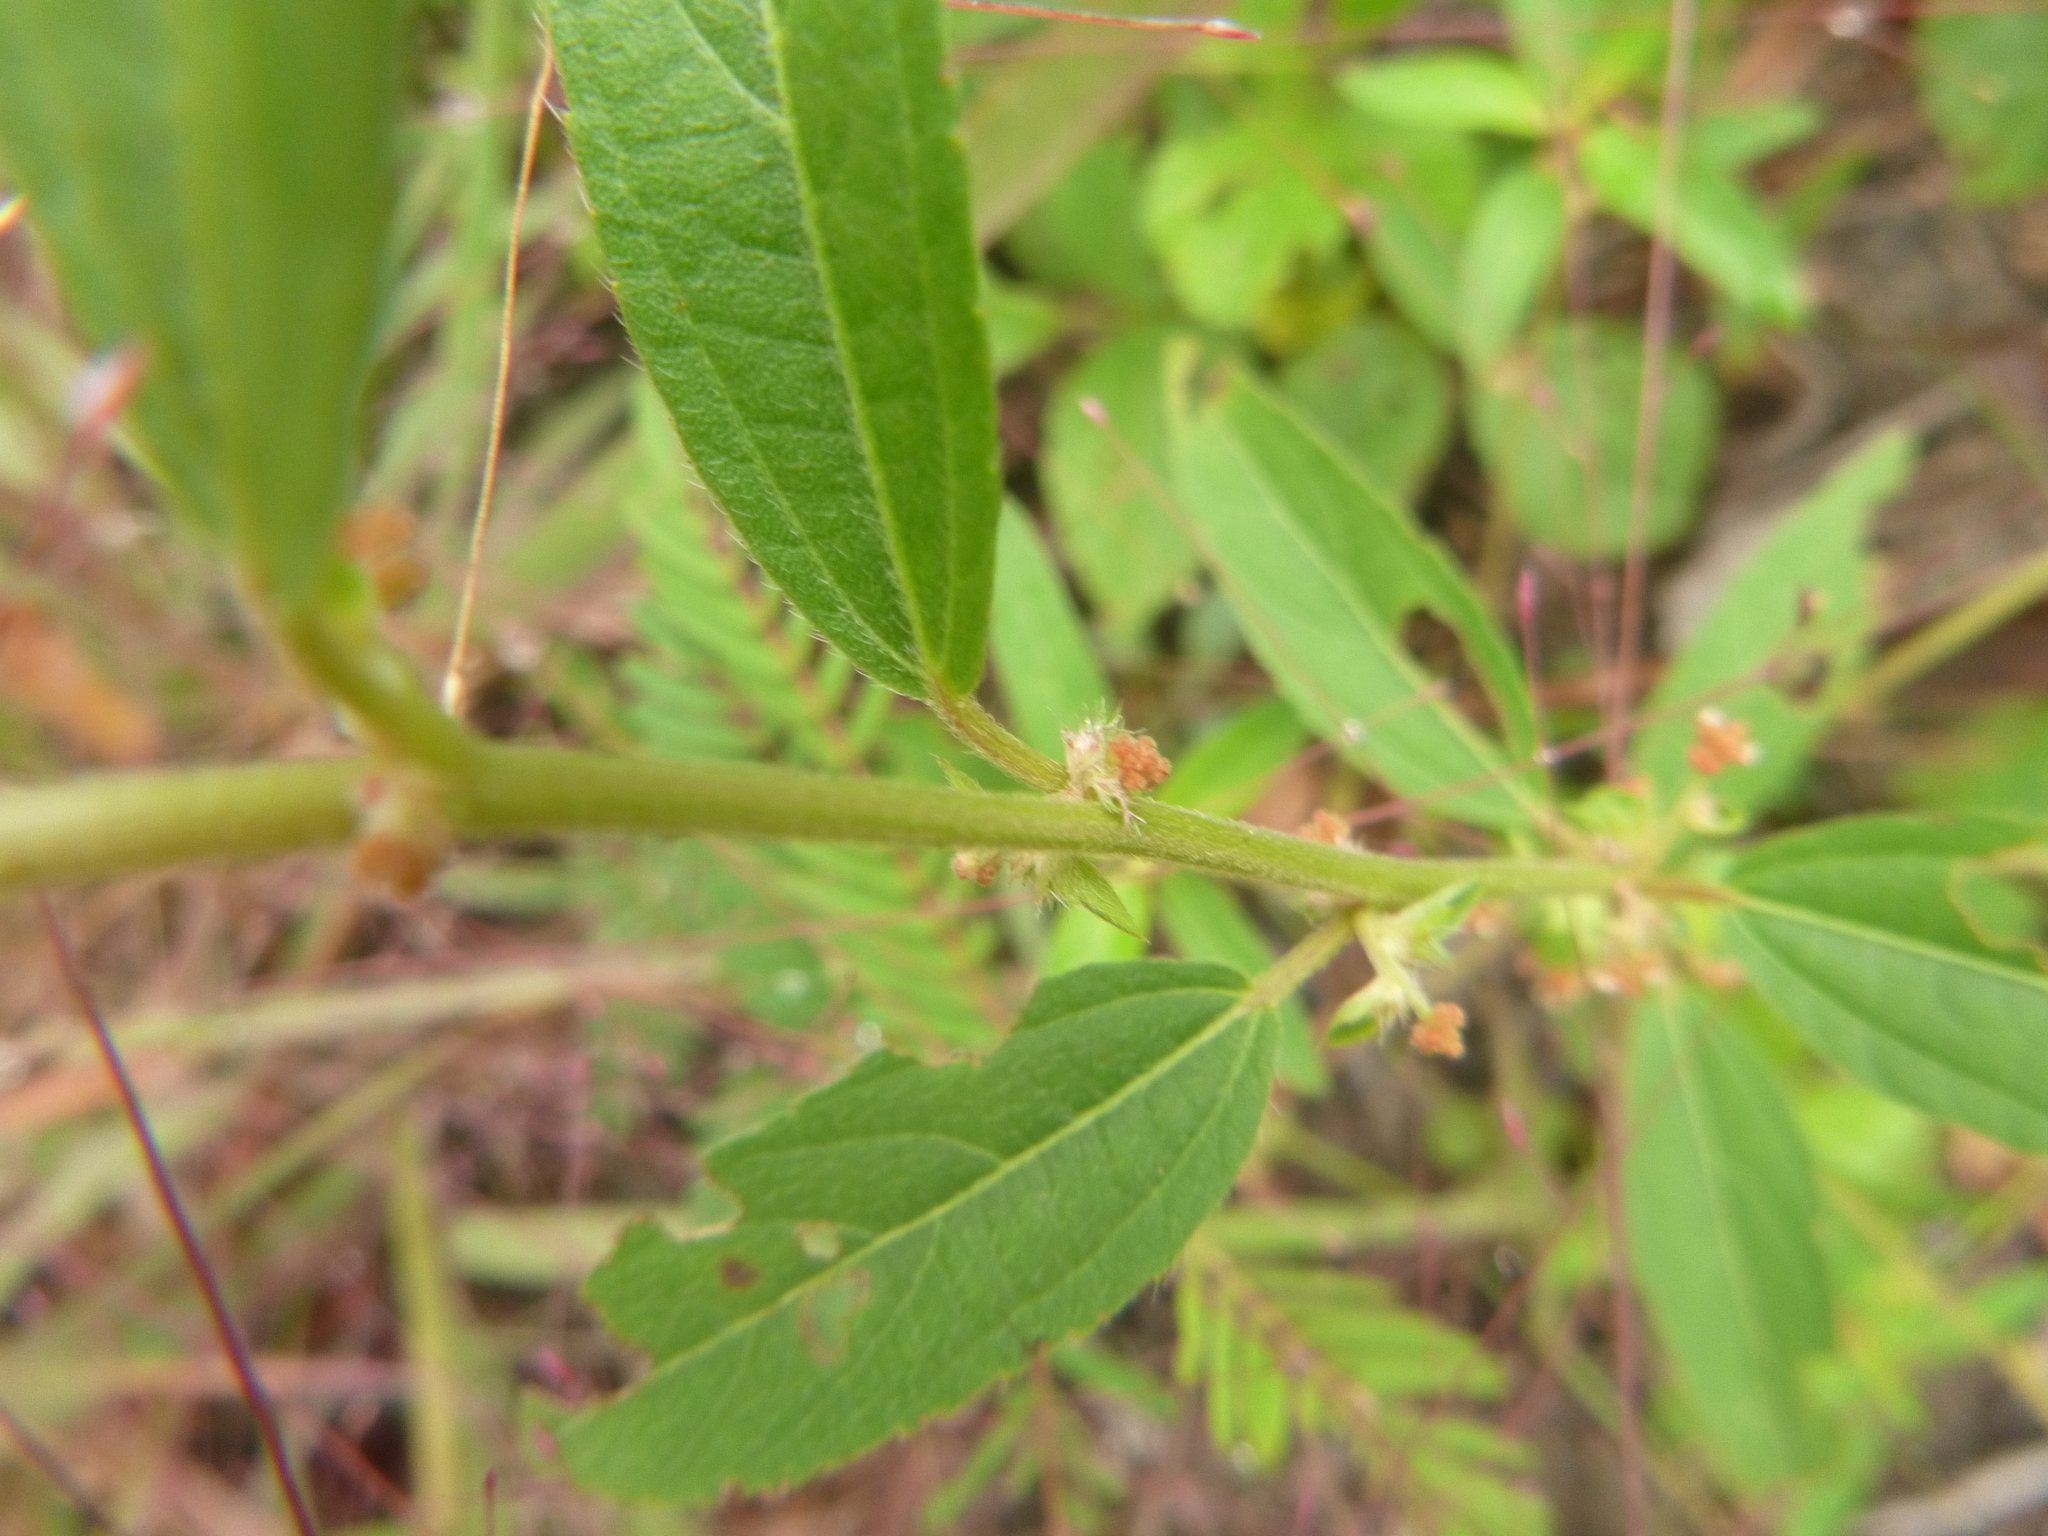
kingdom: Plantae
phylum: Tracheophyta
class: Magnoliopsida
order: Malpighiales
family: Euphorbiaceae
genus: Acalypha
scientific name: Acalypha gracilens
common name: Slender three-seeded mercury
